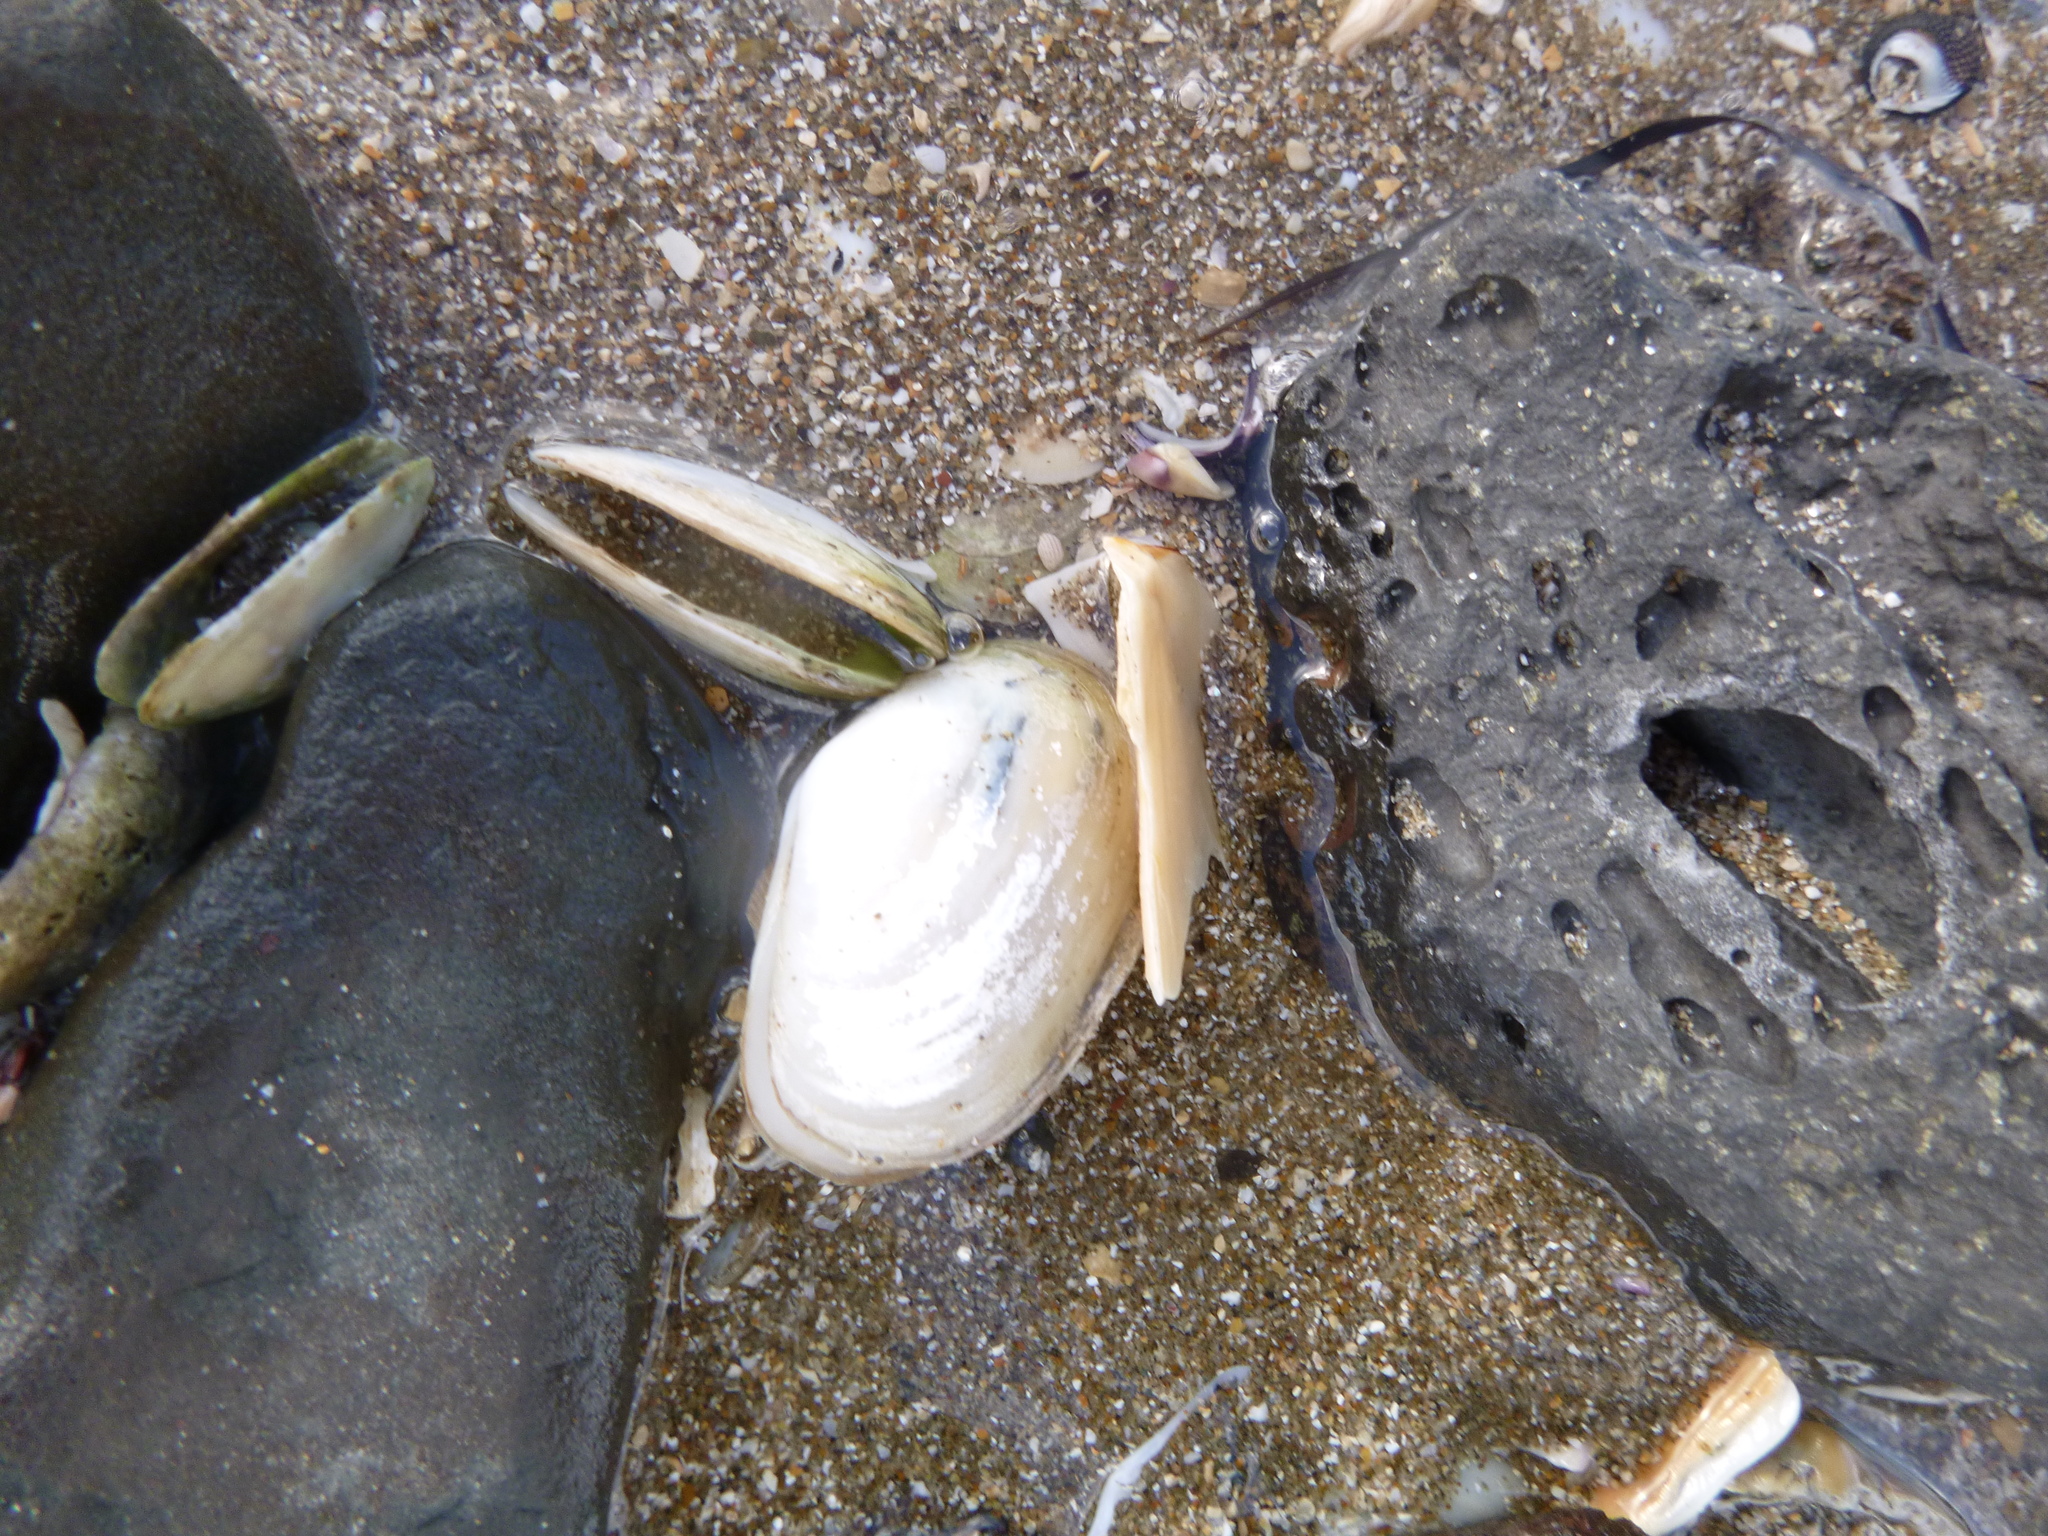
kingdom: Animalia
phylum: Mollusca
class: Bivalvia
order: Venerida
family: Mesodesmatidae
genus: Paphies
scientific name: Paphies australis
